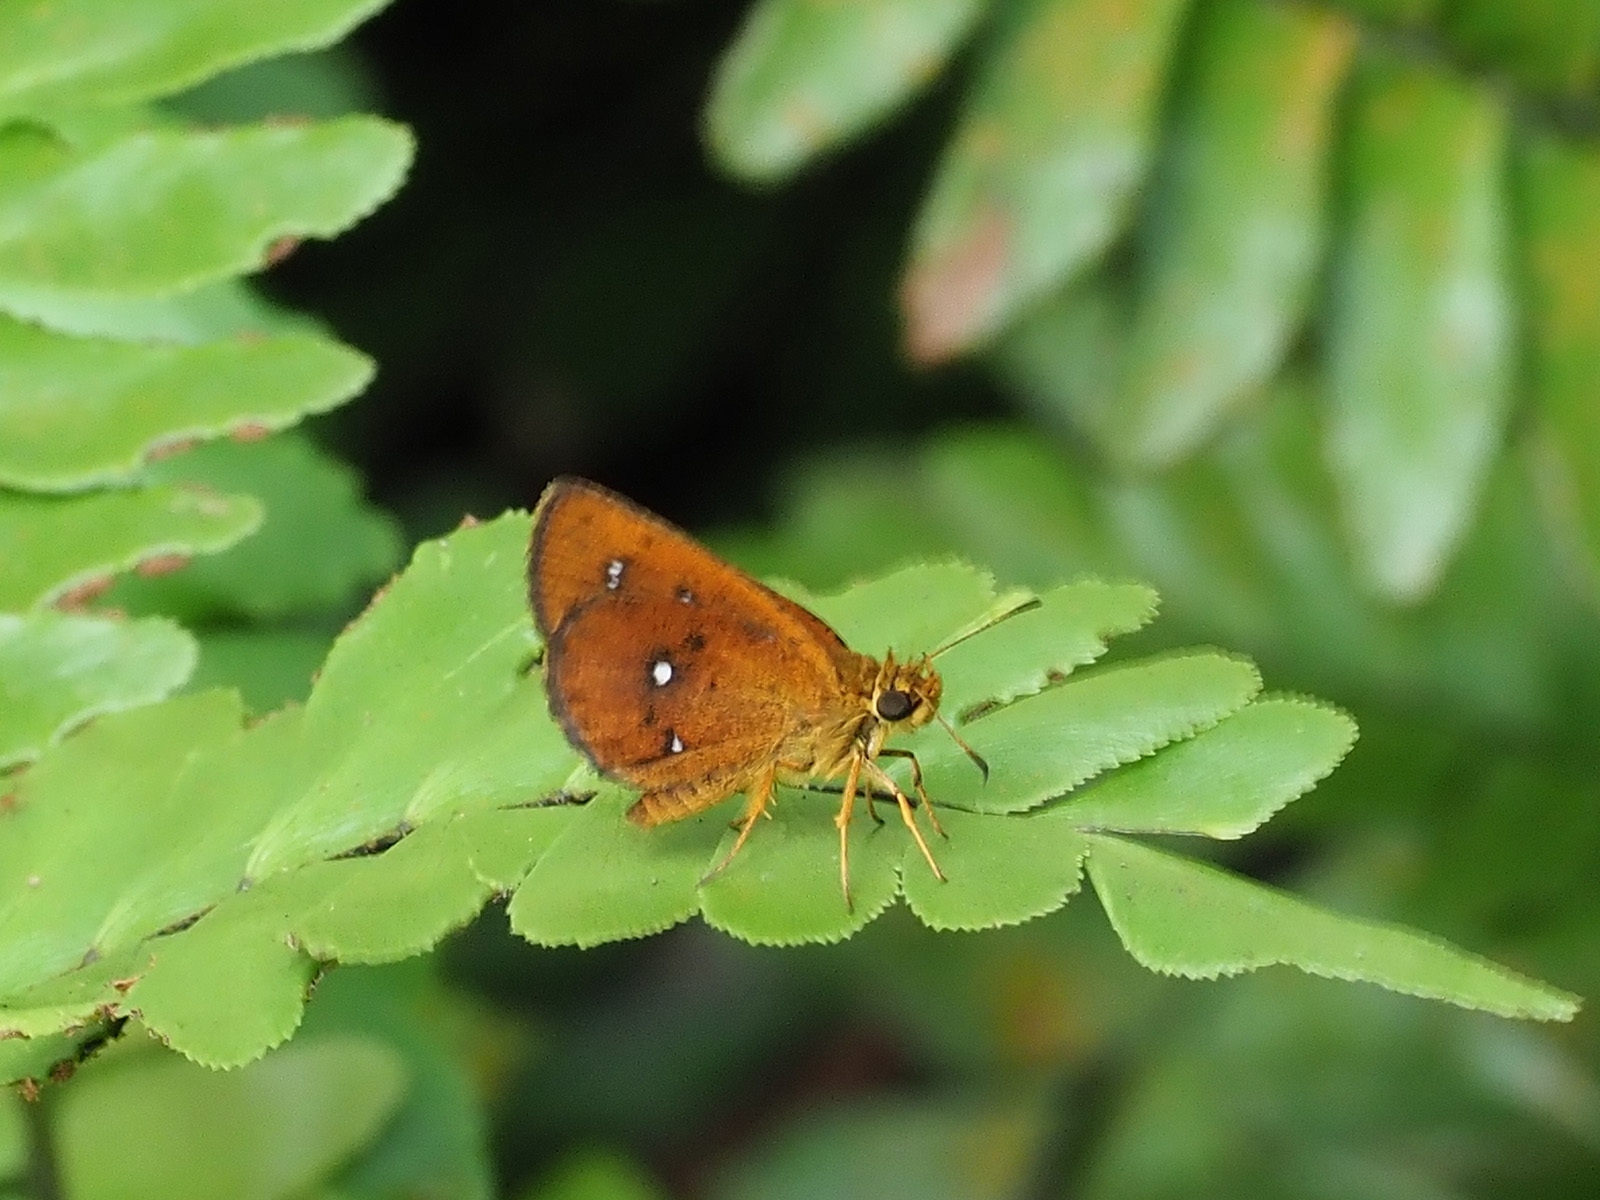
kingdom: Animalia
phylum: Arthropoda
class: Insecta
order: Lepidoptera
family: Hesperiidae
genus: Iambrix
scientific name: Iambrix salsala
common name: Chestnut bob
